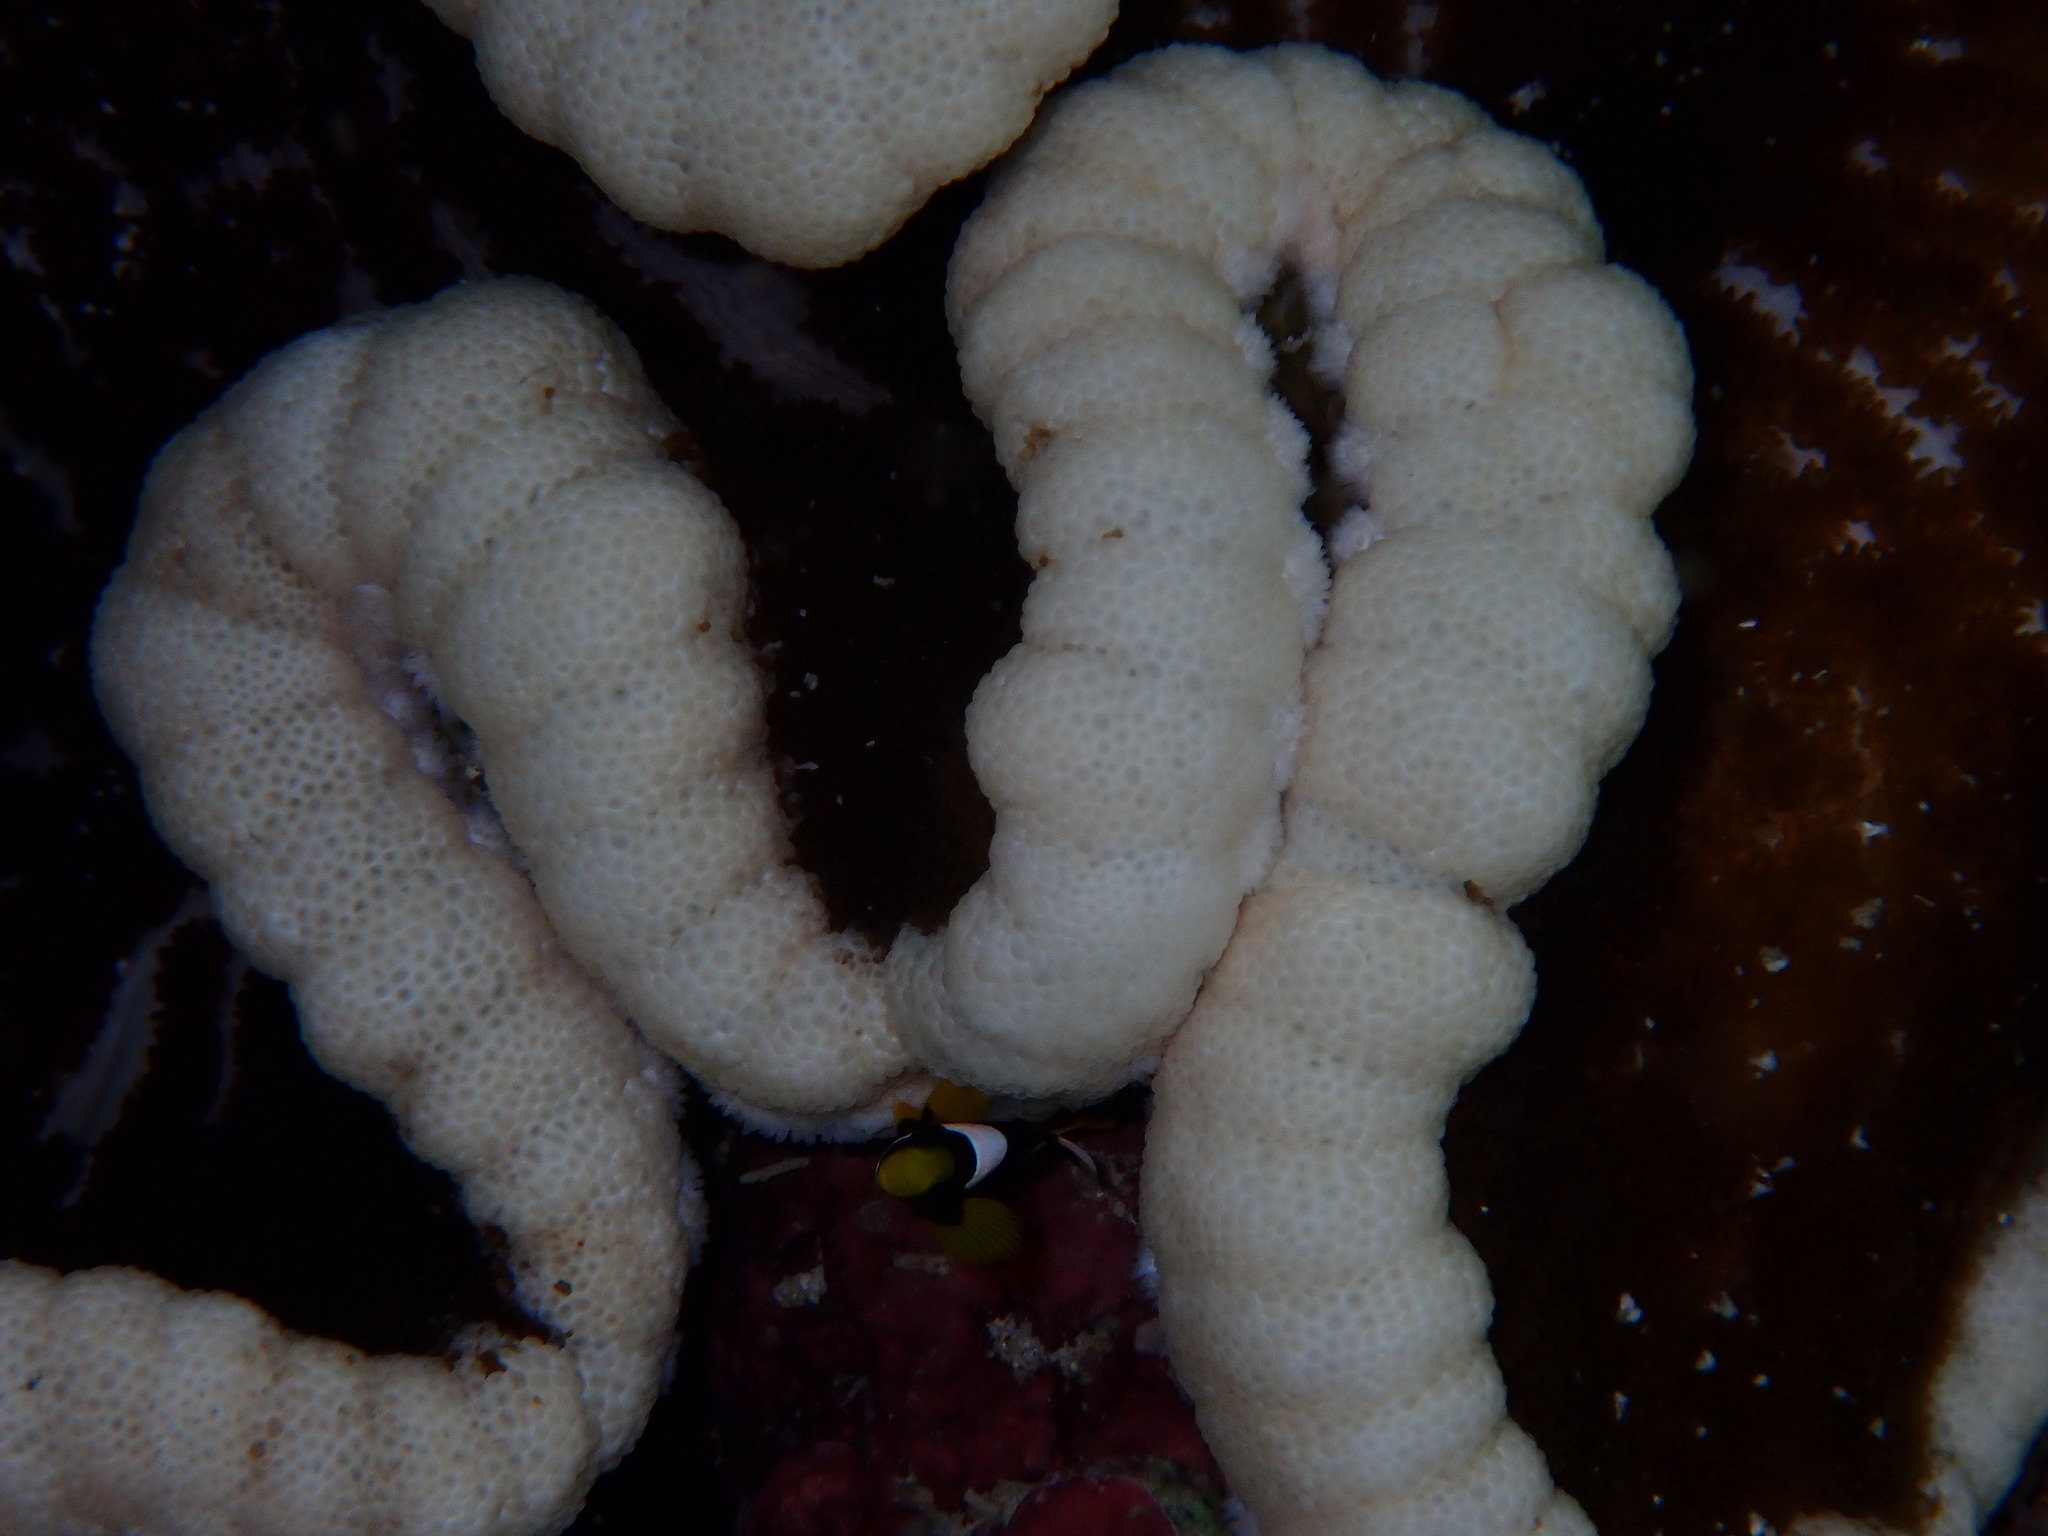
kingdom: Animalia
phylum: Cnidaria
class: Anthozoa
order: Actiniaria
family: Thalassianthidae
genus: Cryptodendrum
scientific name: Cryptodendrum adhaesivum
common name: Adhesive sea anemone
